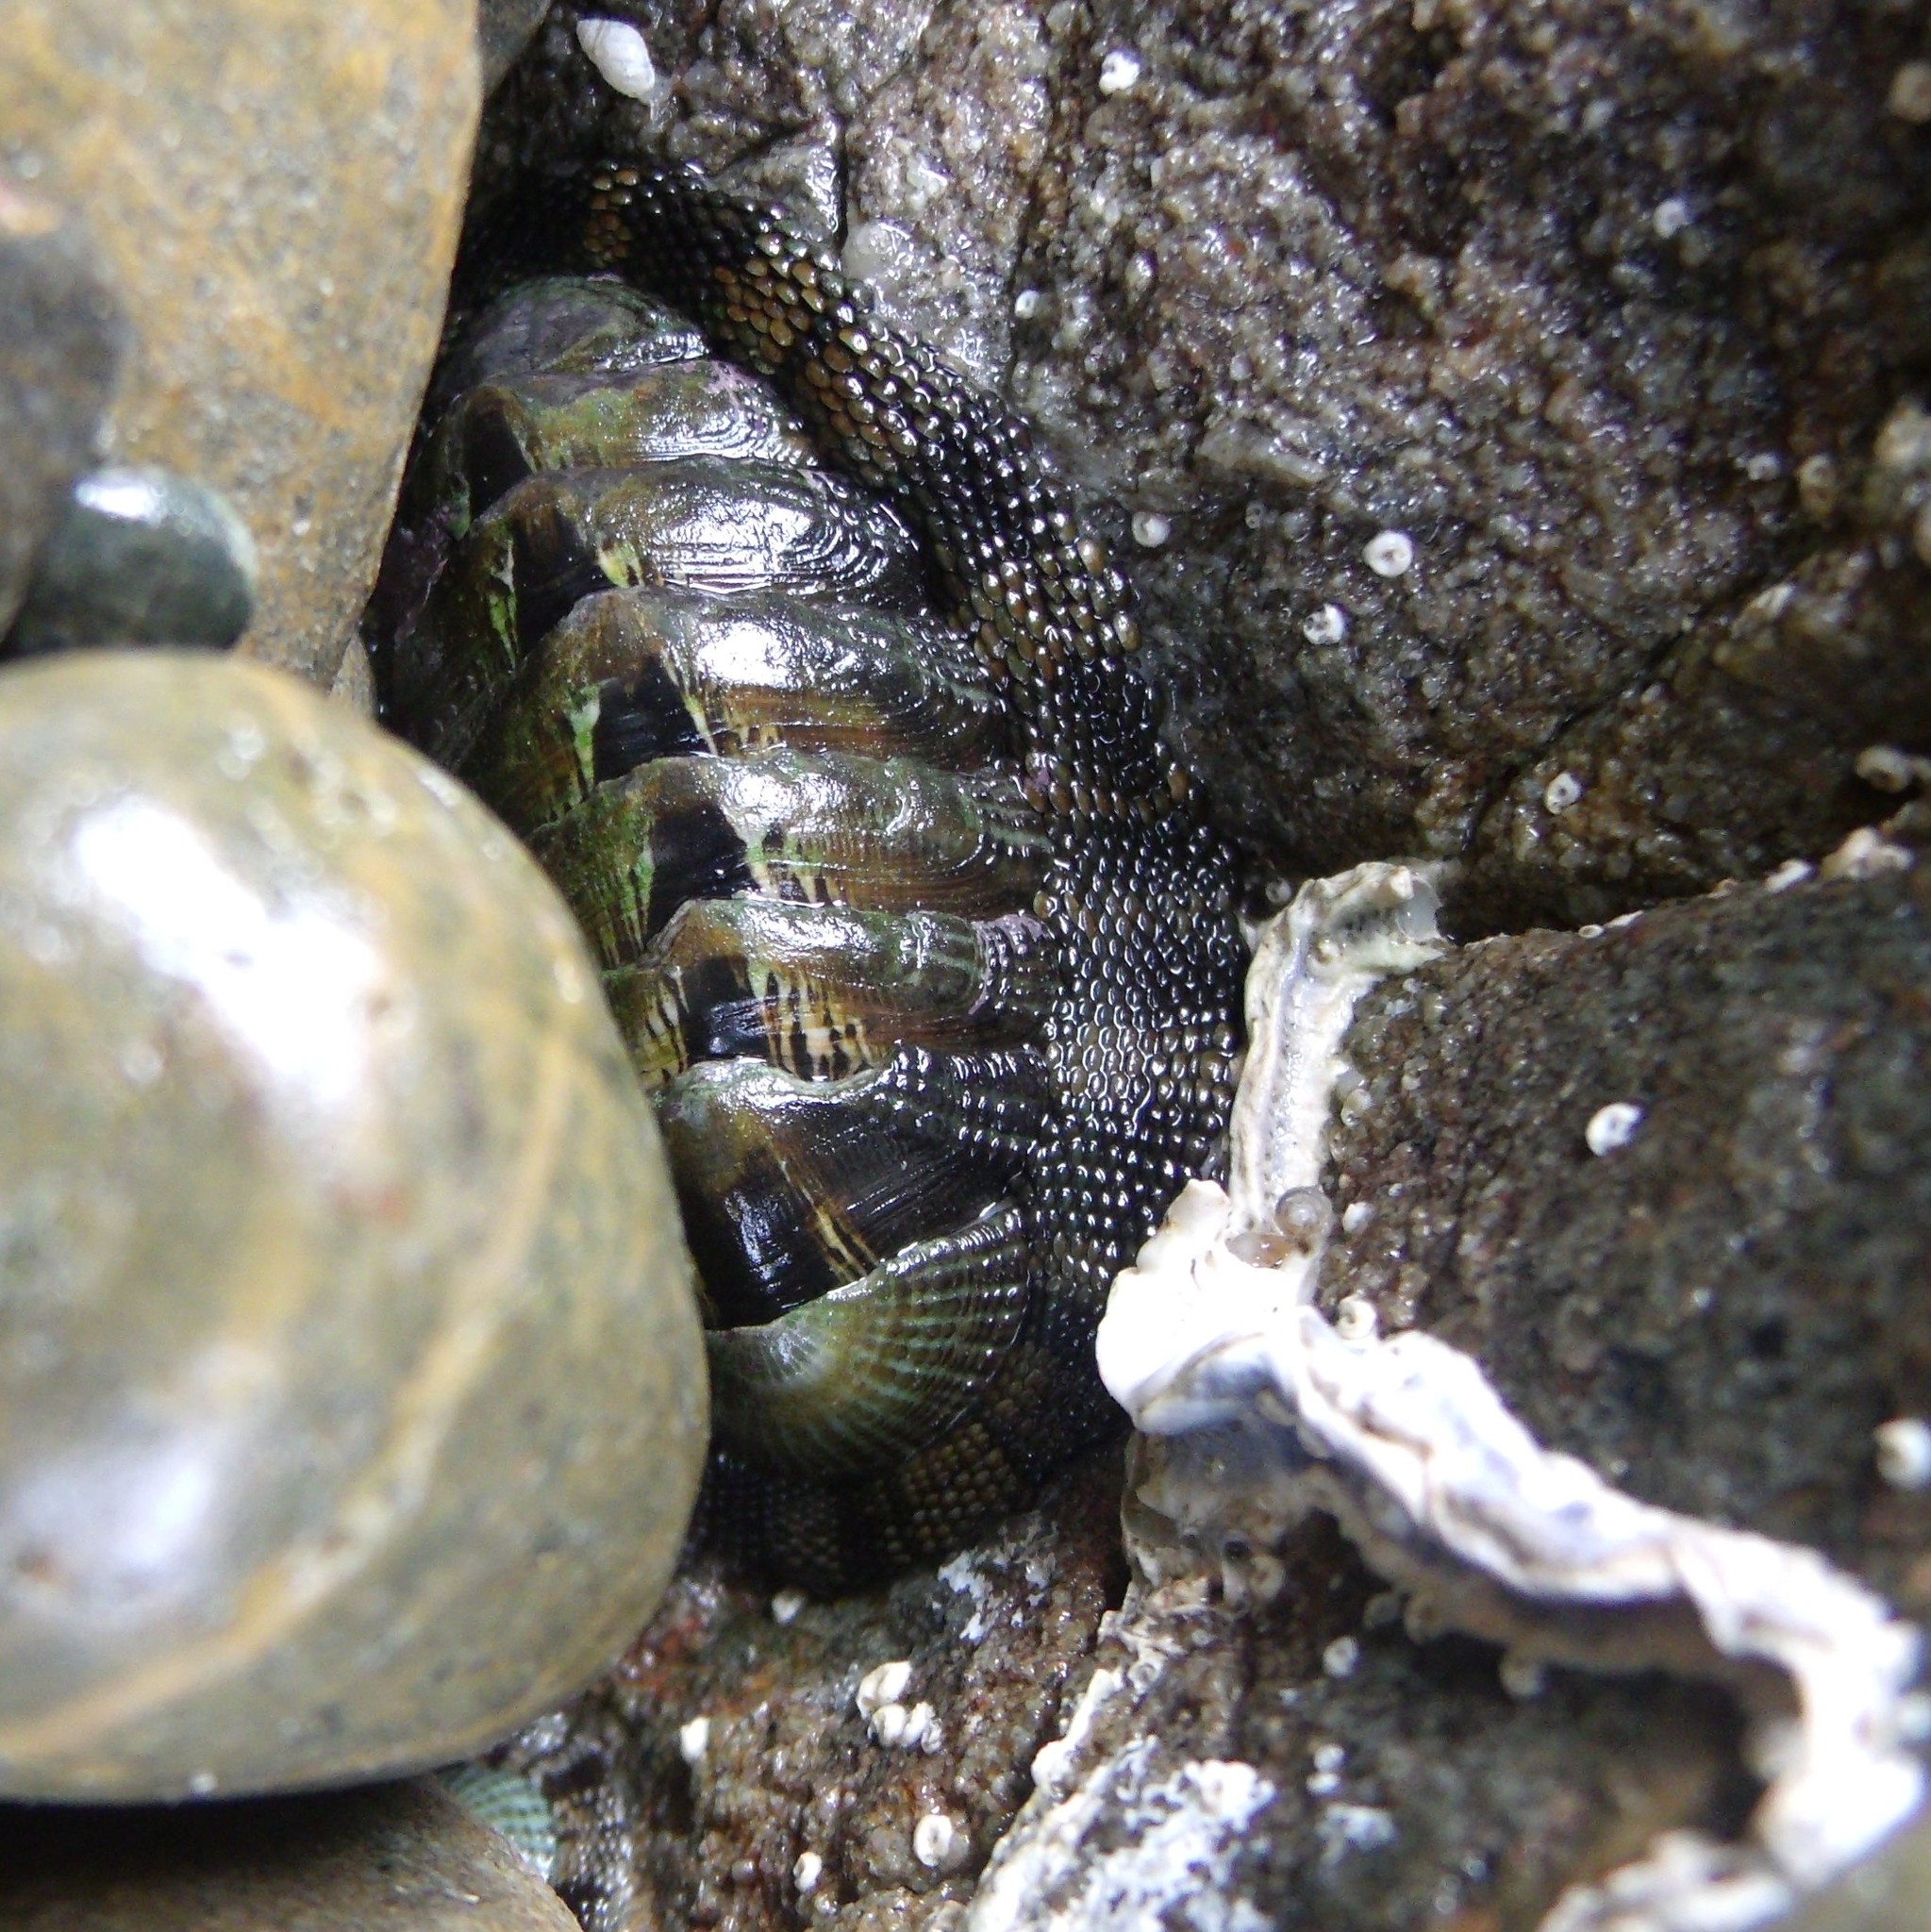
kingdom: Animalia
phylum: Mollusca
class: Polyplacophora
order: Chitonida
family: Chitonidae
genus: Sypharochiton
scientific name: Sypharochiton pelliserpentis
